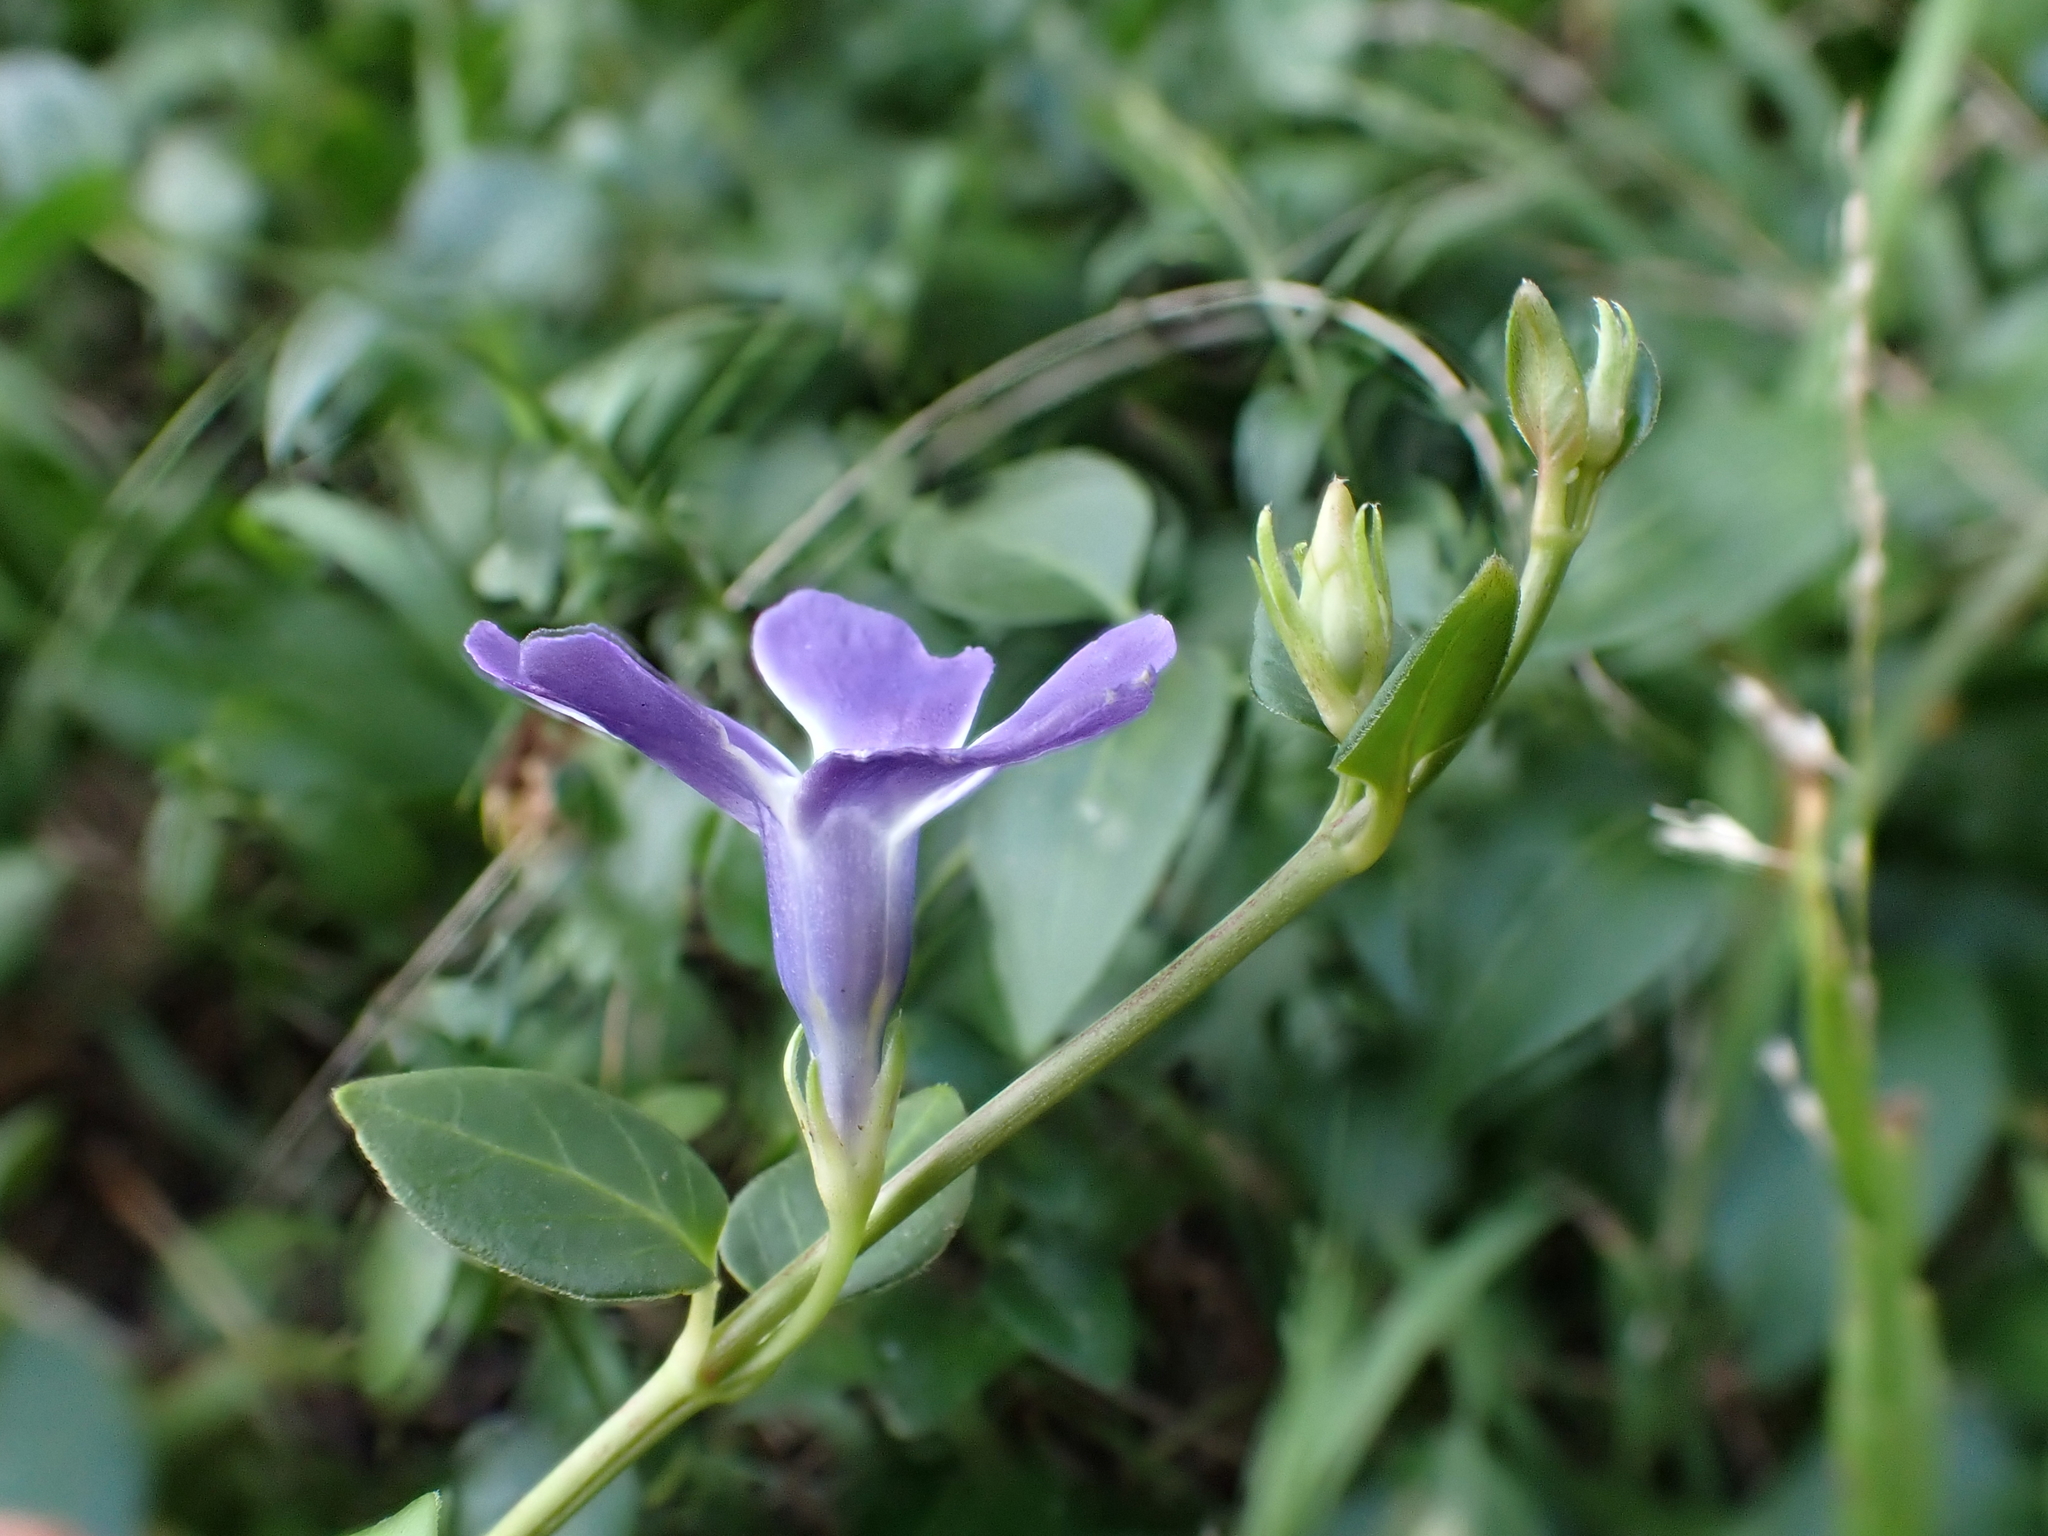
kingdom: Plantae
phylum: Tracheophyta
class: Magnoliopsida
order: Gentianales
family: Apocynaceae
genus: Vinca
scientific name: Vinca major
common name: Greater periwinkle
